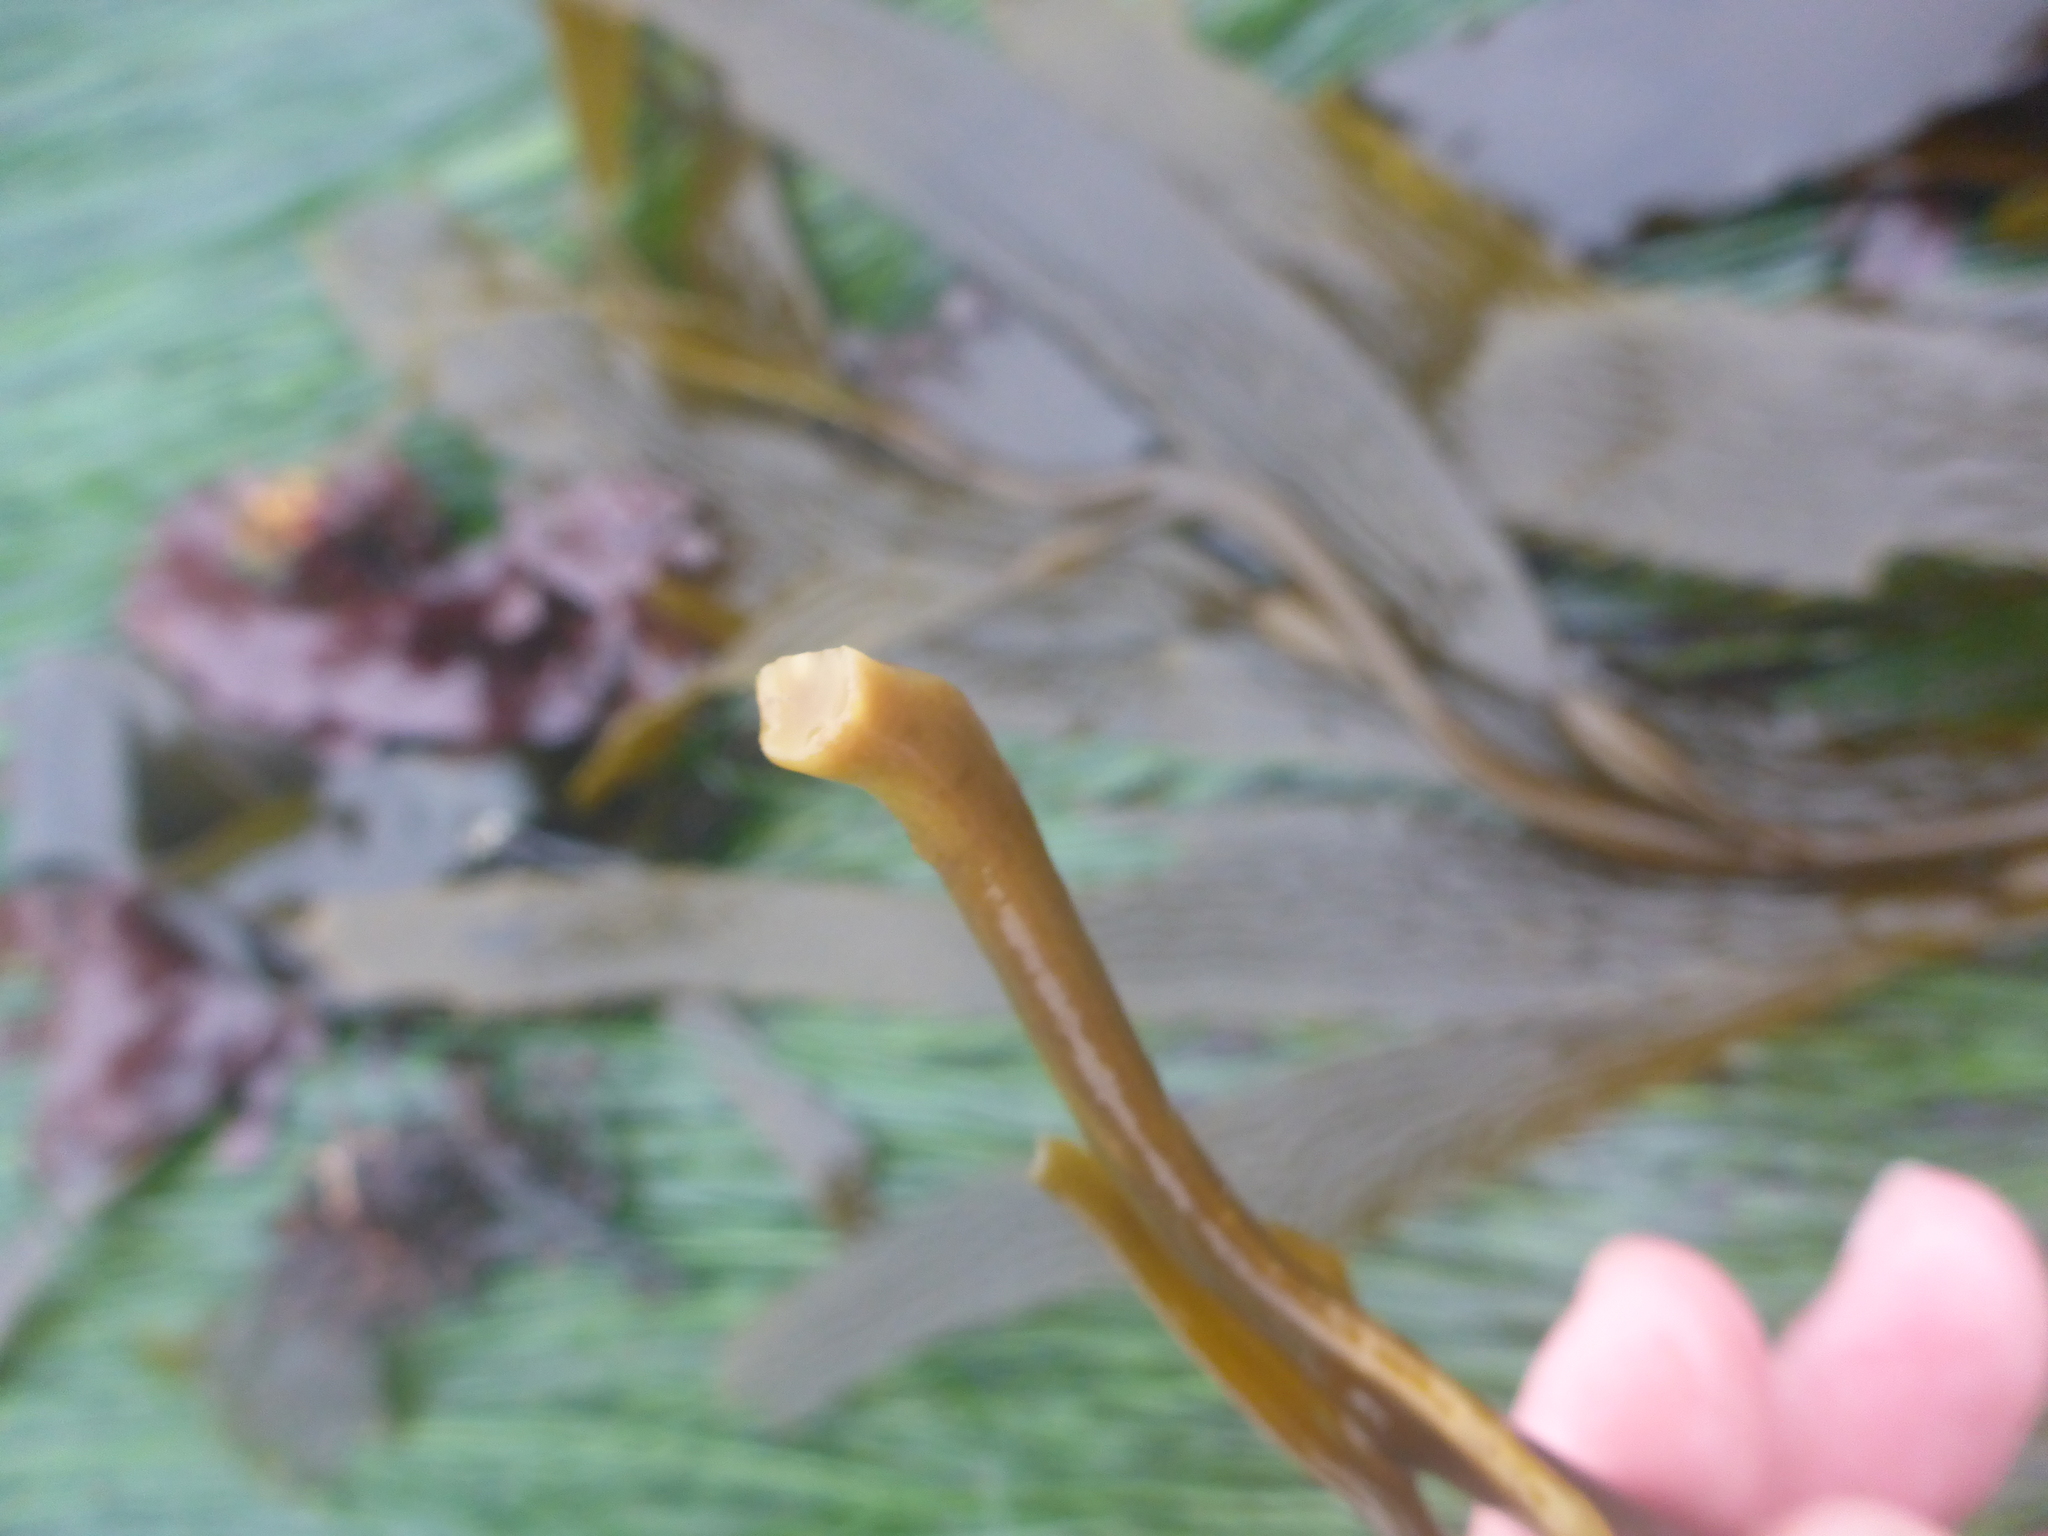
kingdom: Chromista
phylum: Ochrophyta
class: Phaeophyceae
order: Laminariales
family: Laminariaceae
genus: Macrocystis
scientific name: Macrocystis pyrifera
